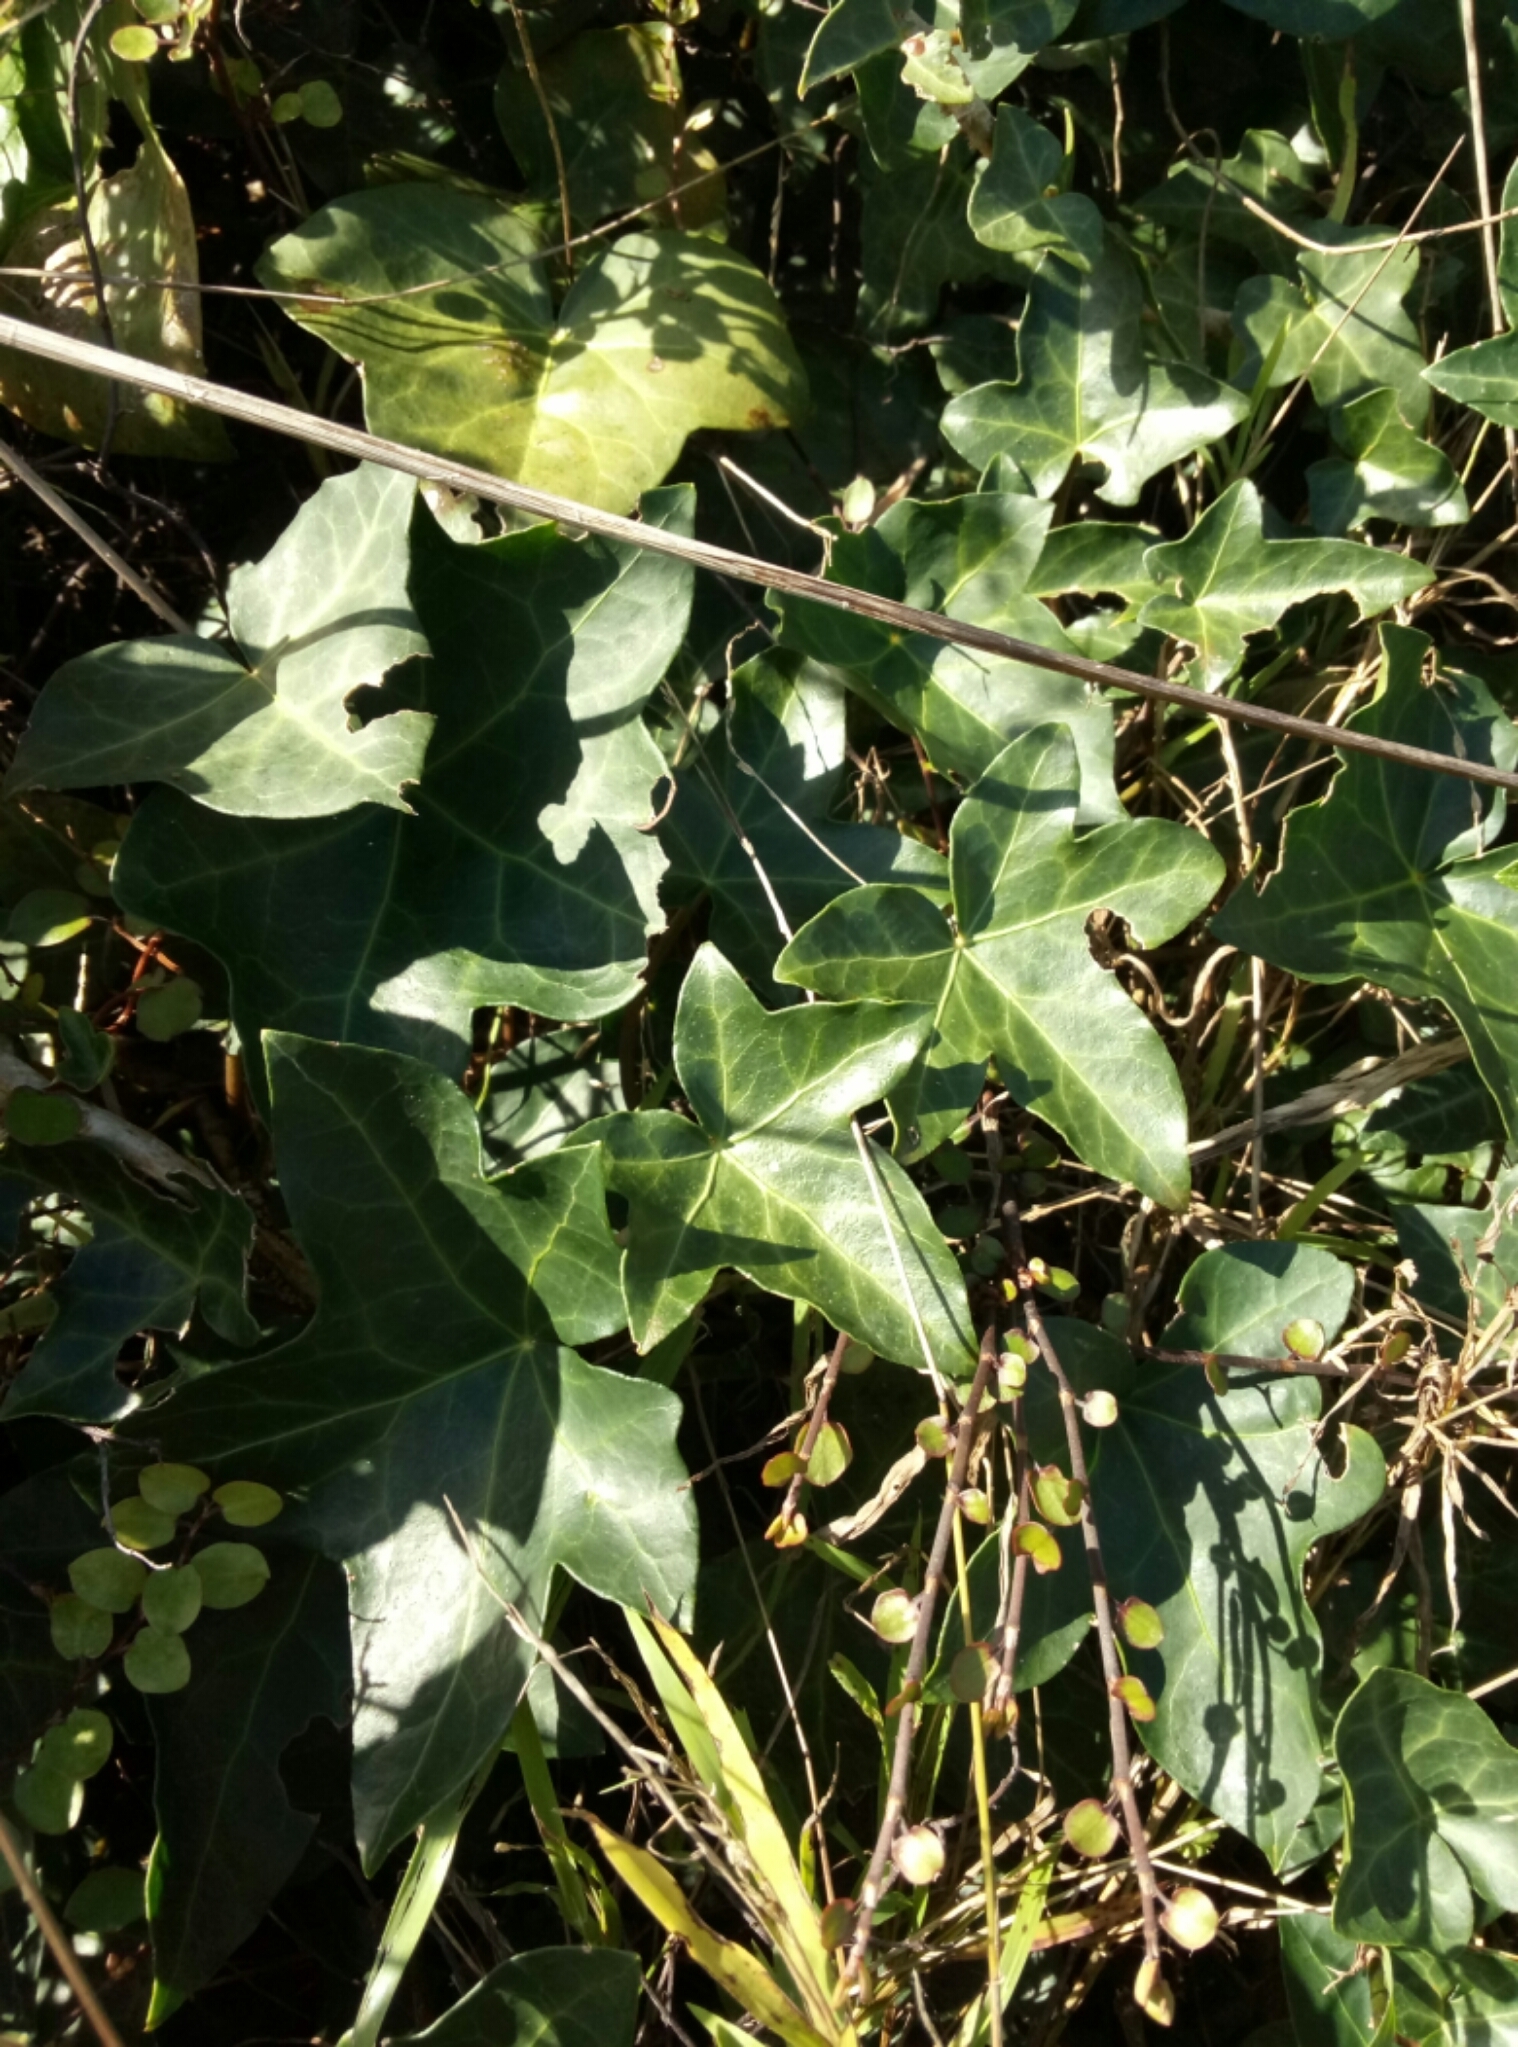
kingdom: Plantae
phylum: Tracheophyta
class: Magnoliopsida
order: Apiales
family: Araliaceae
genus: Hedera
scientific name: Hedera helix
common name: Ivy
